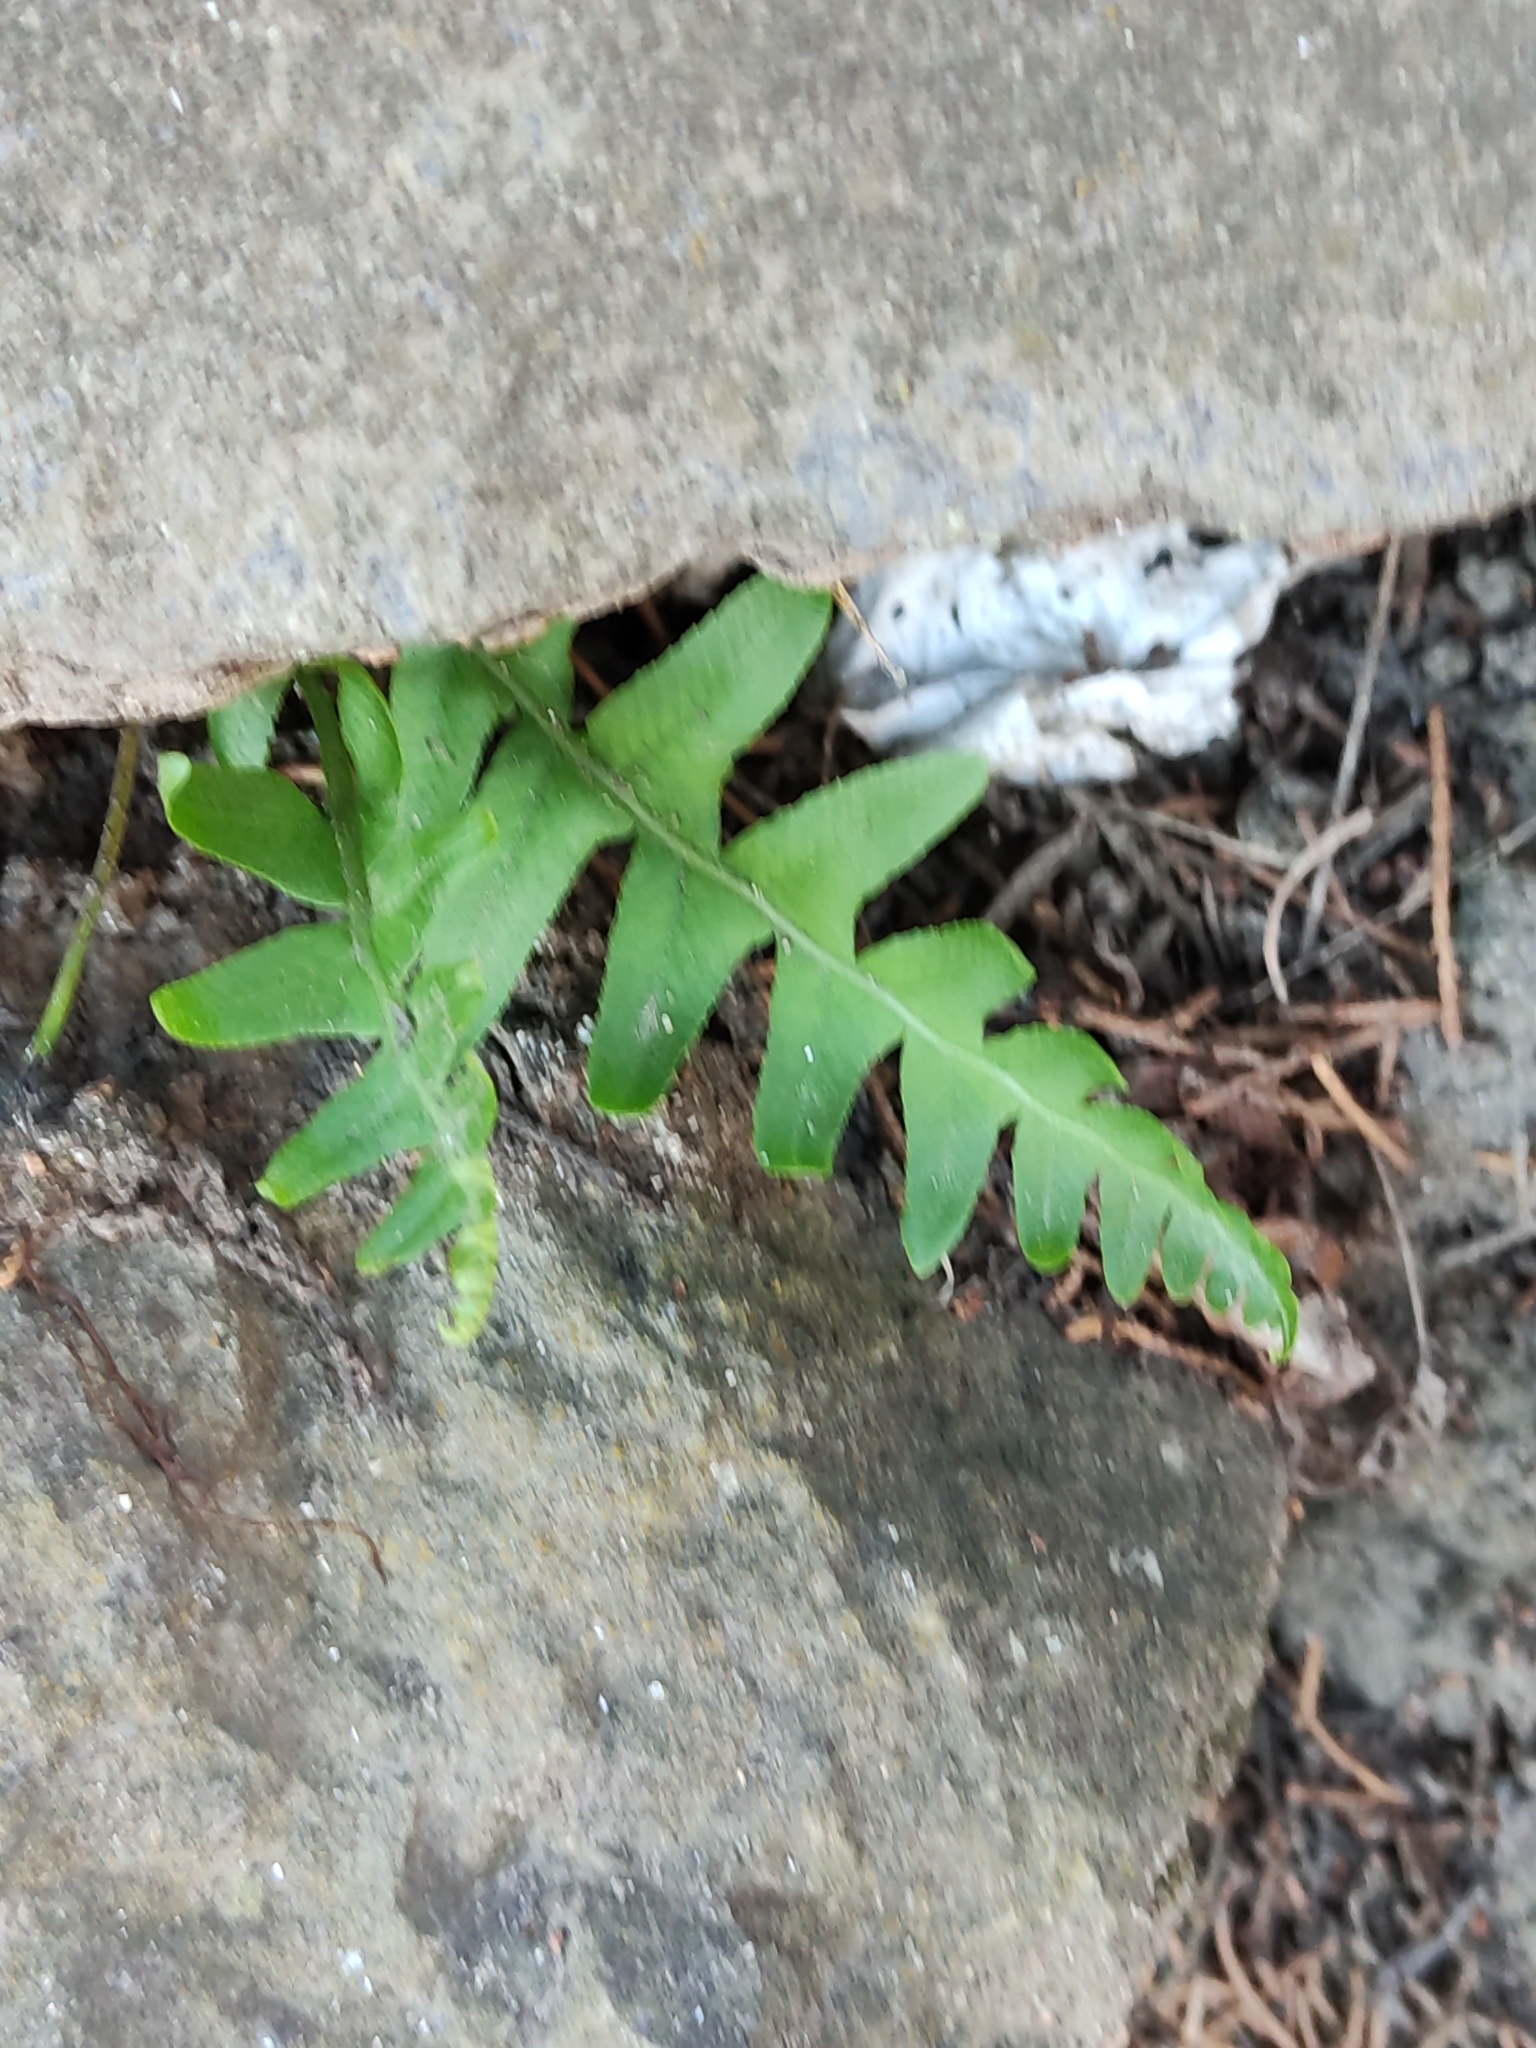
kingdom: Plantae
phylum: Tracheophyta
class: Polypodiopsida
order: Polypodiales
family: Polypodiaceae
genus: Polypodium
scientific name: Polypodium vulgare
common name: Common polypody
